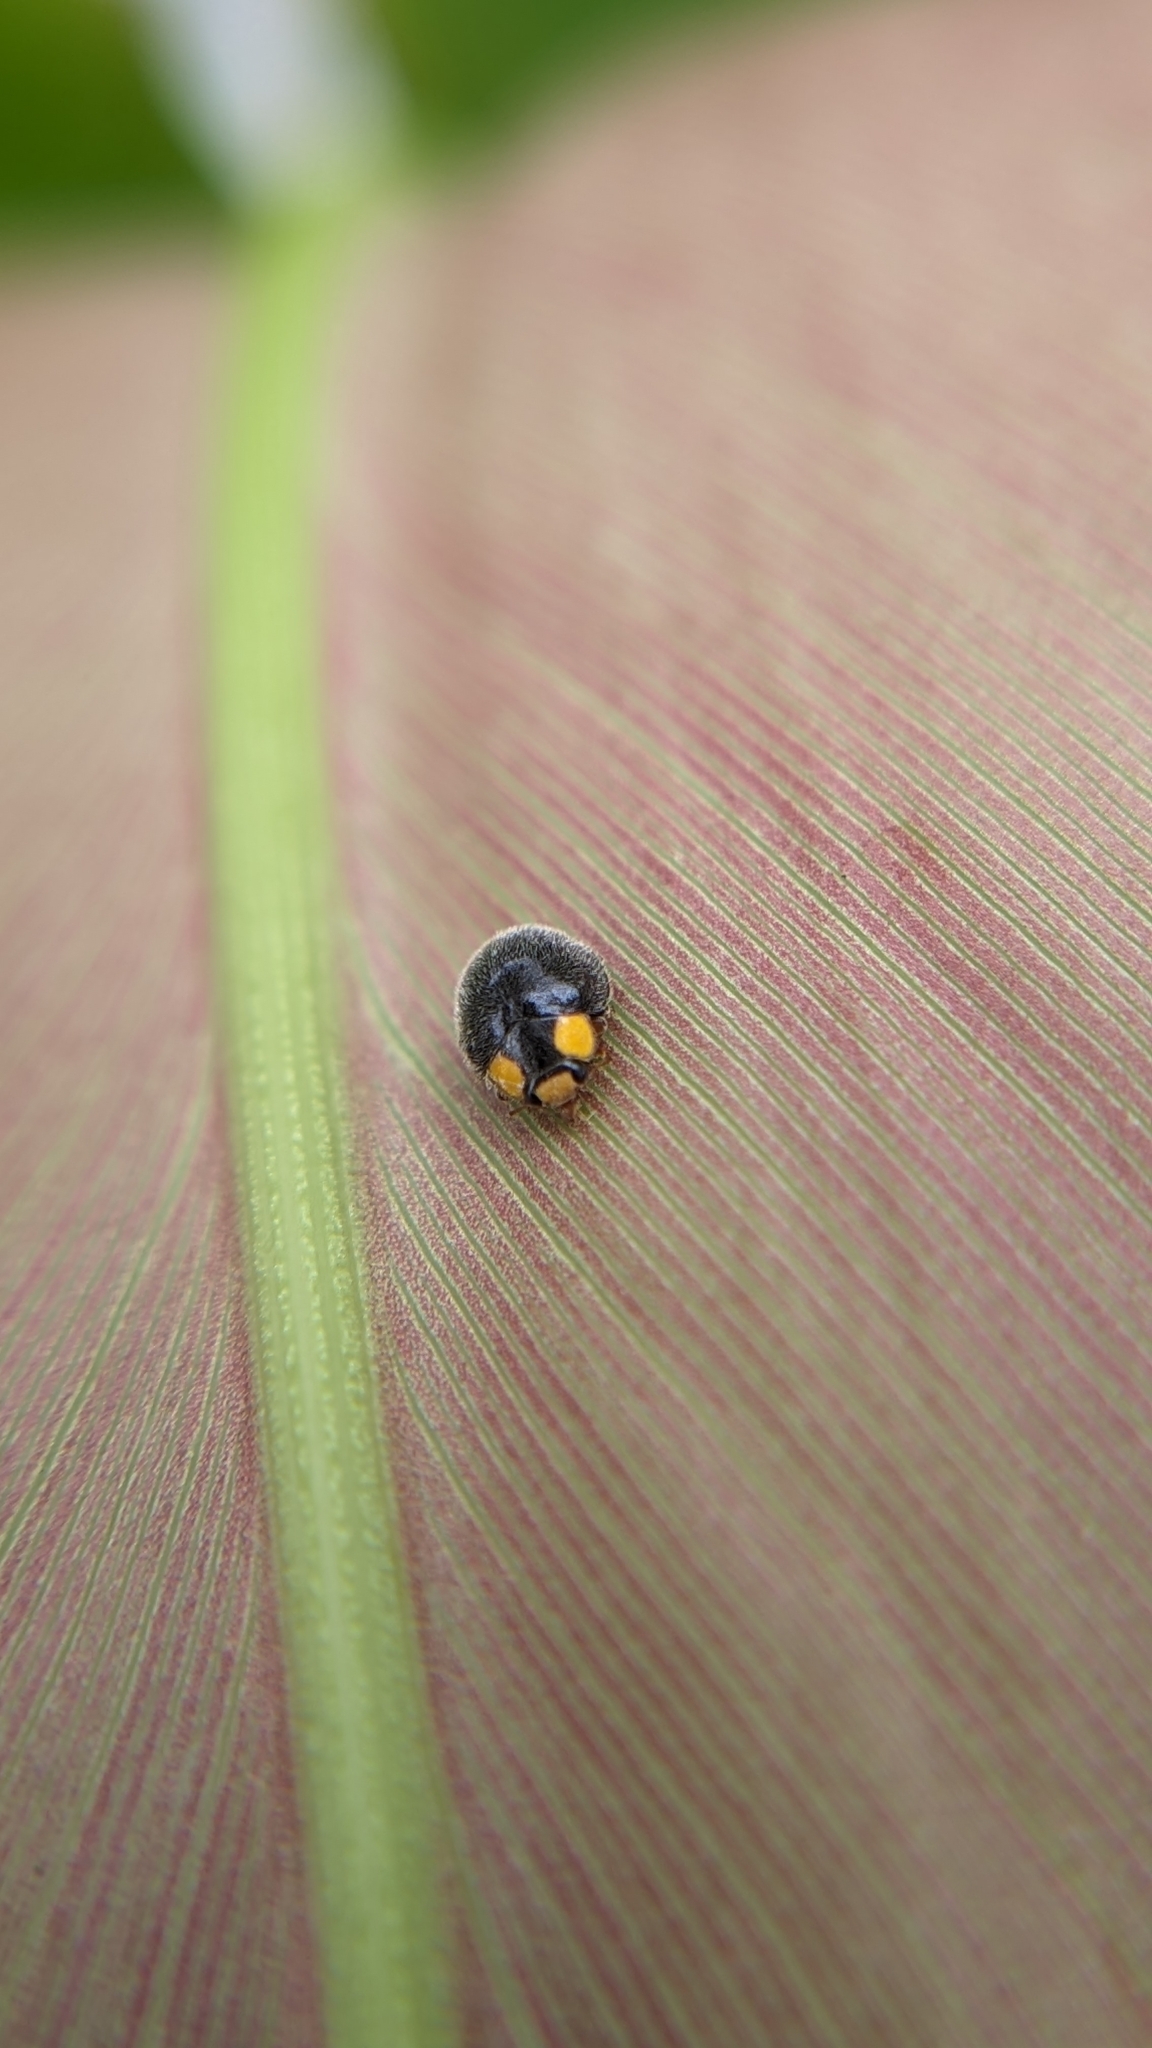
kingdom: Animalia
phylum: Arthropoda
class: Insecta
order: Coleoptera
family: Coccinellidae
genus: Scymnodes
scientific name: Scymnodes lividigaster
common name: Yellowshouldered lady beetle
